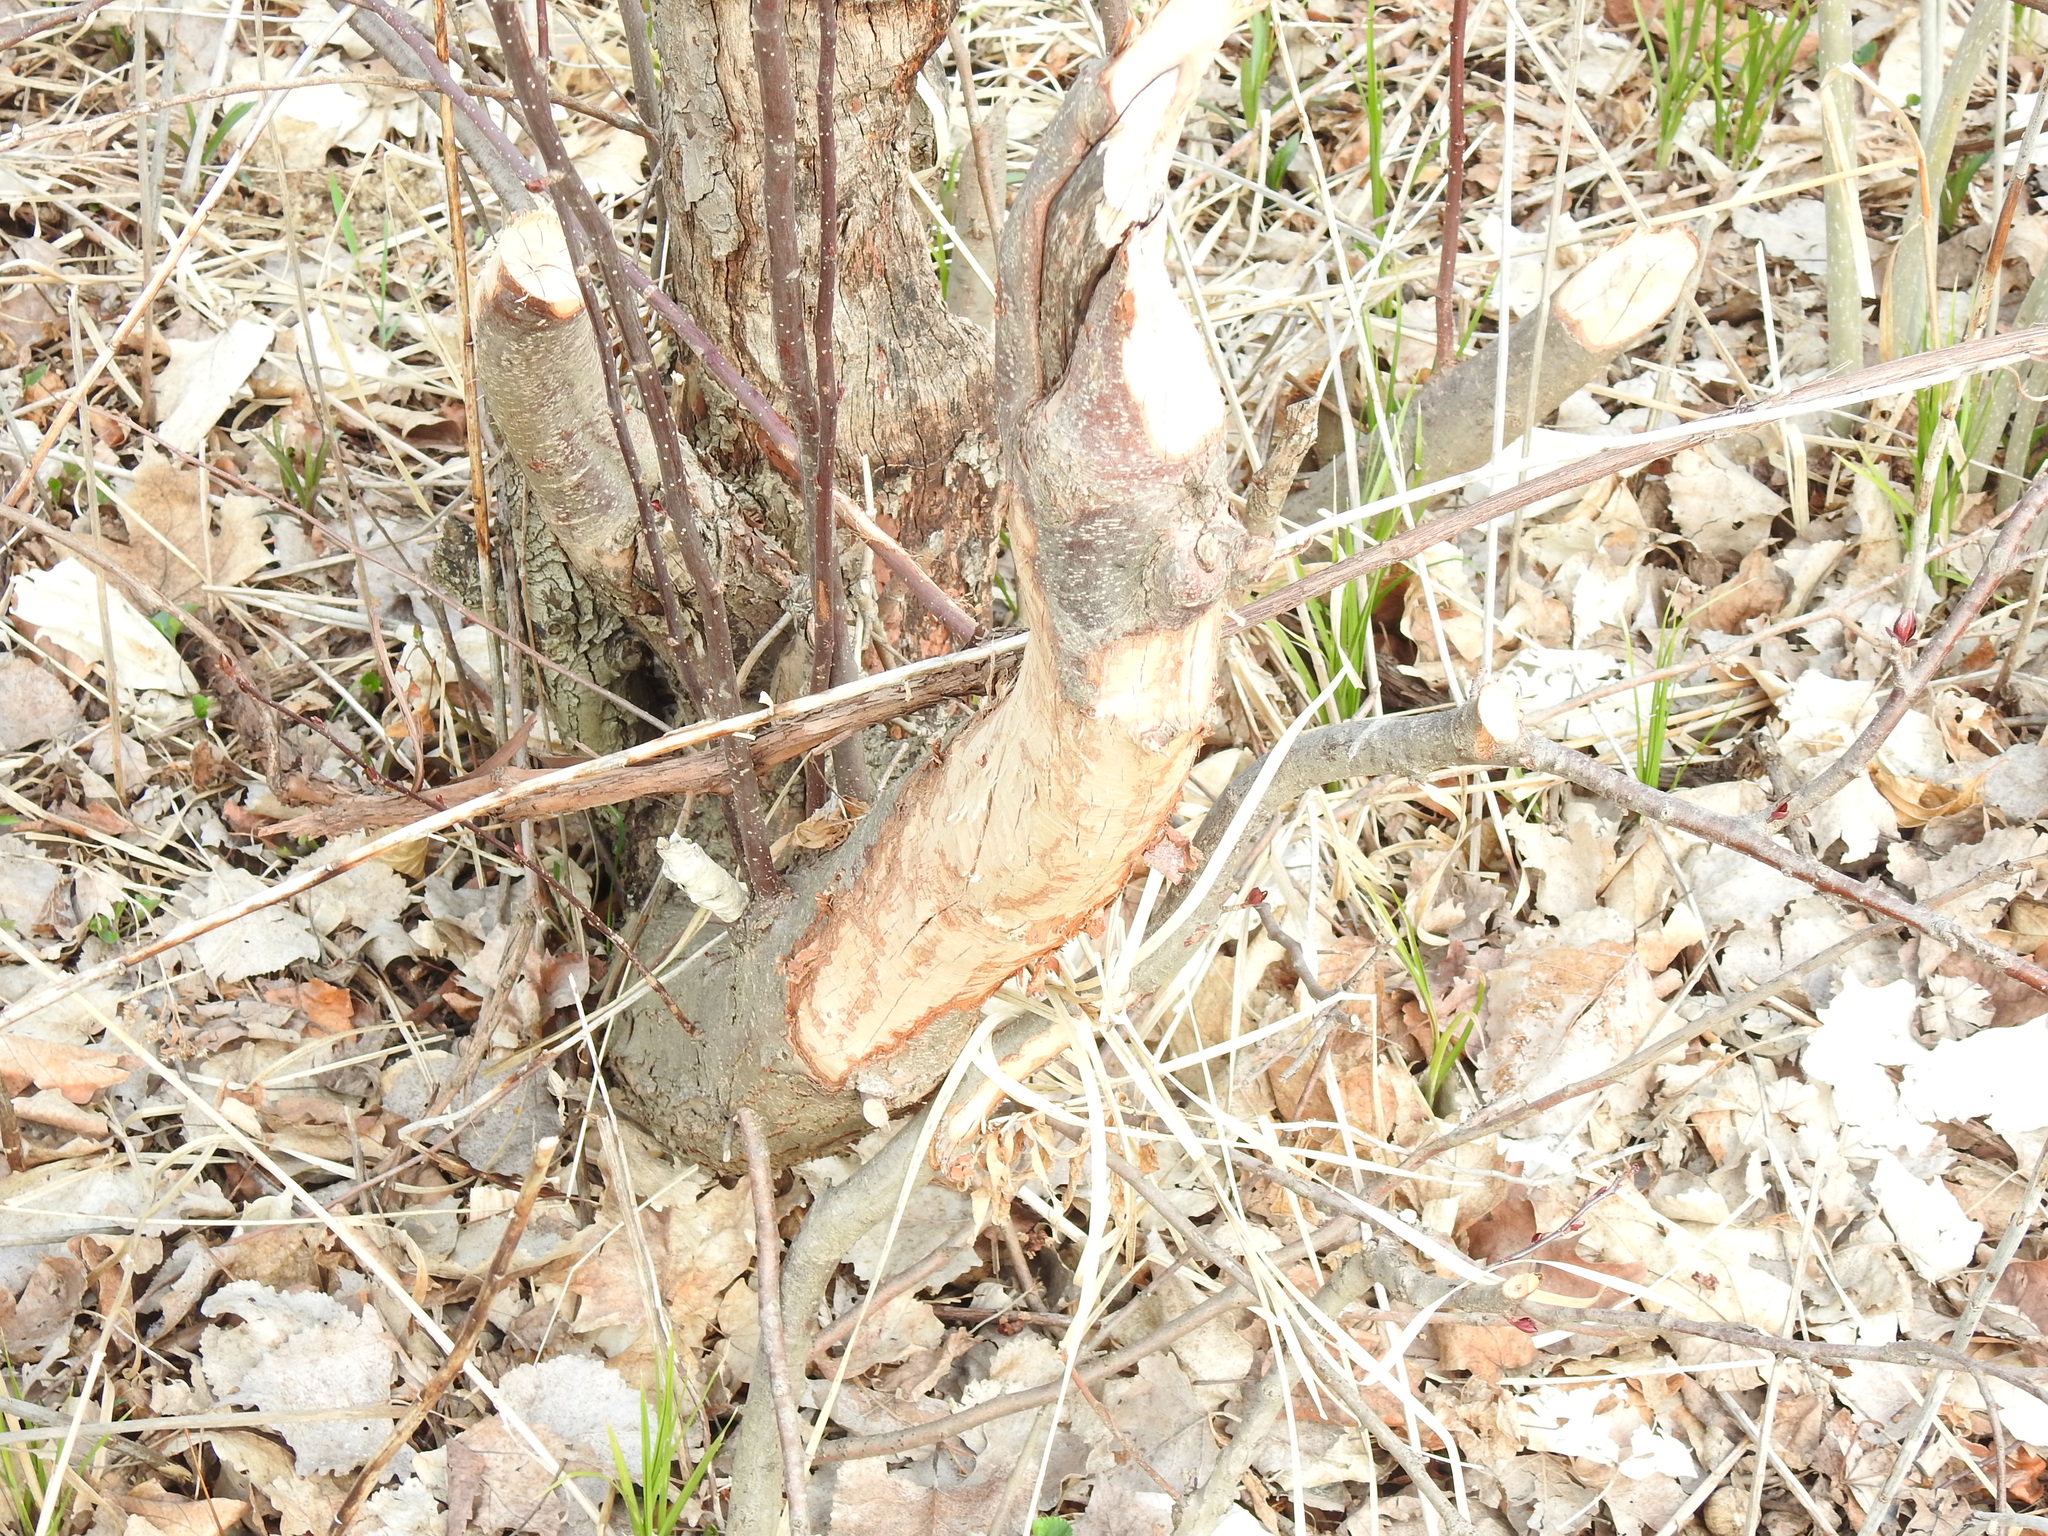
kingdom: Animalia
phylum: Chordata
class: Mammalia
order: Rodentia
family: Castoridae
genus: Castor
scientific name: Castor canadensis
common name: American beaver
